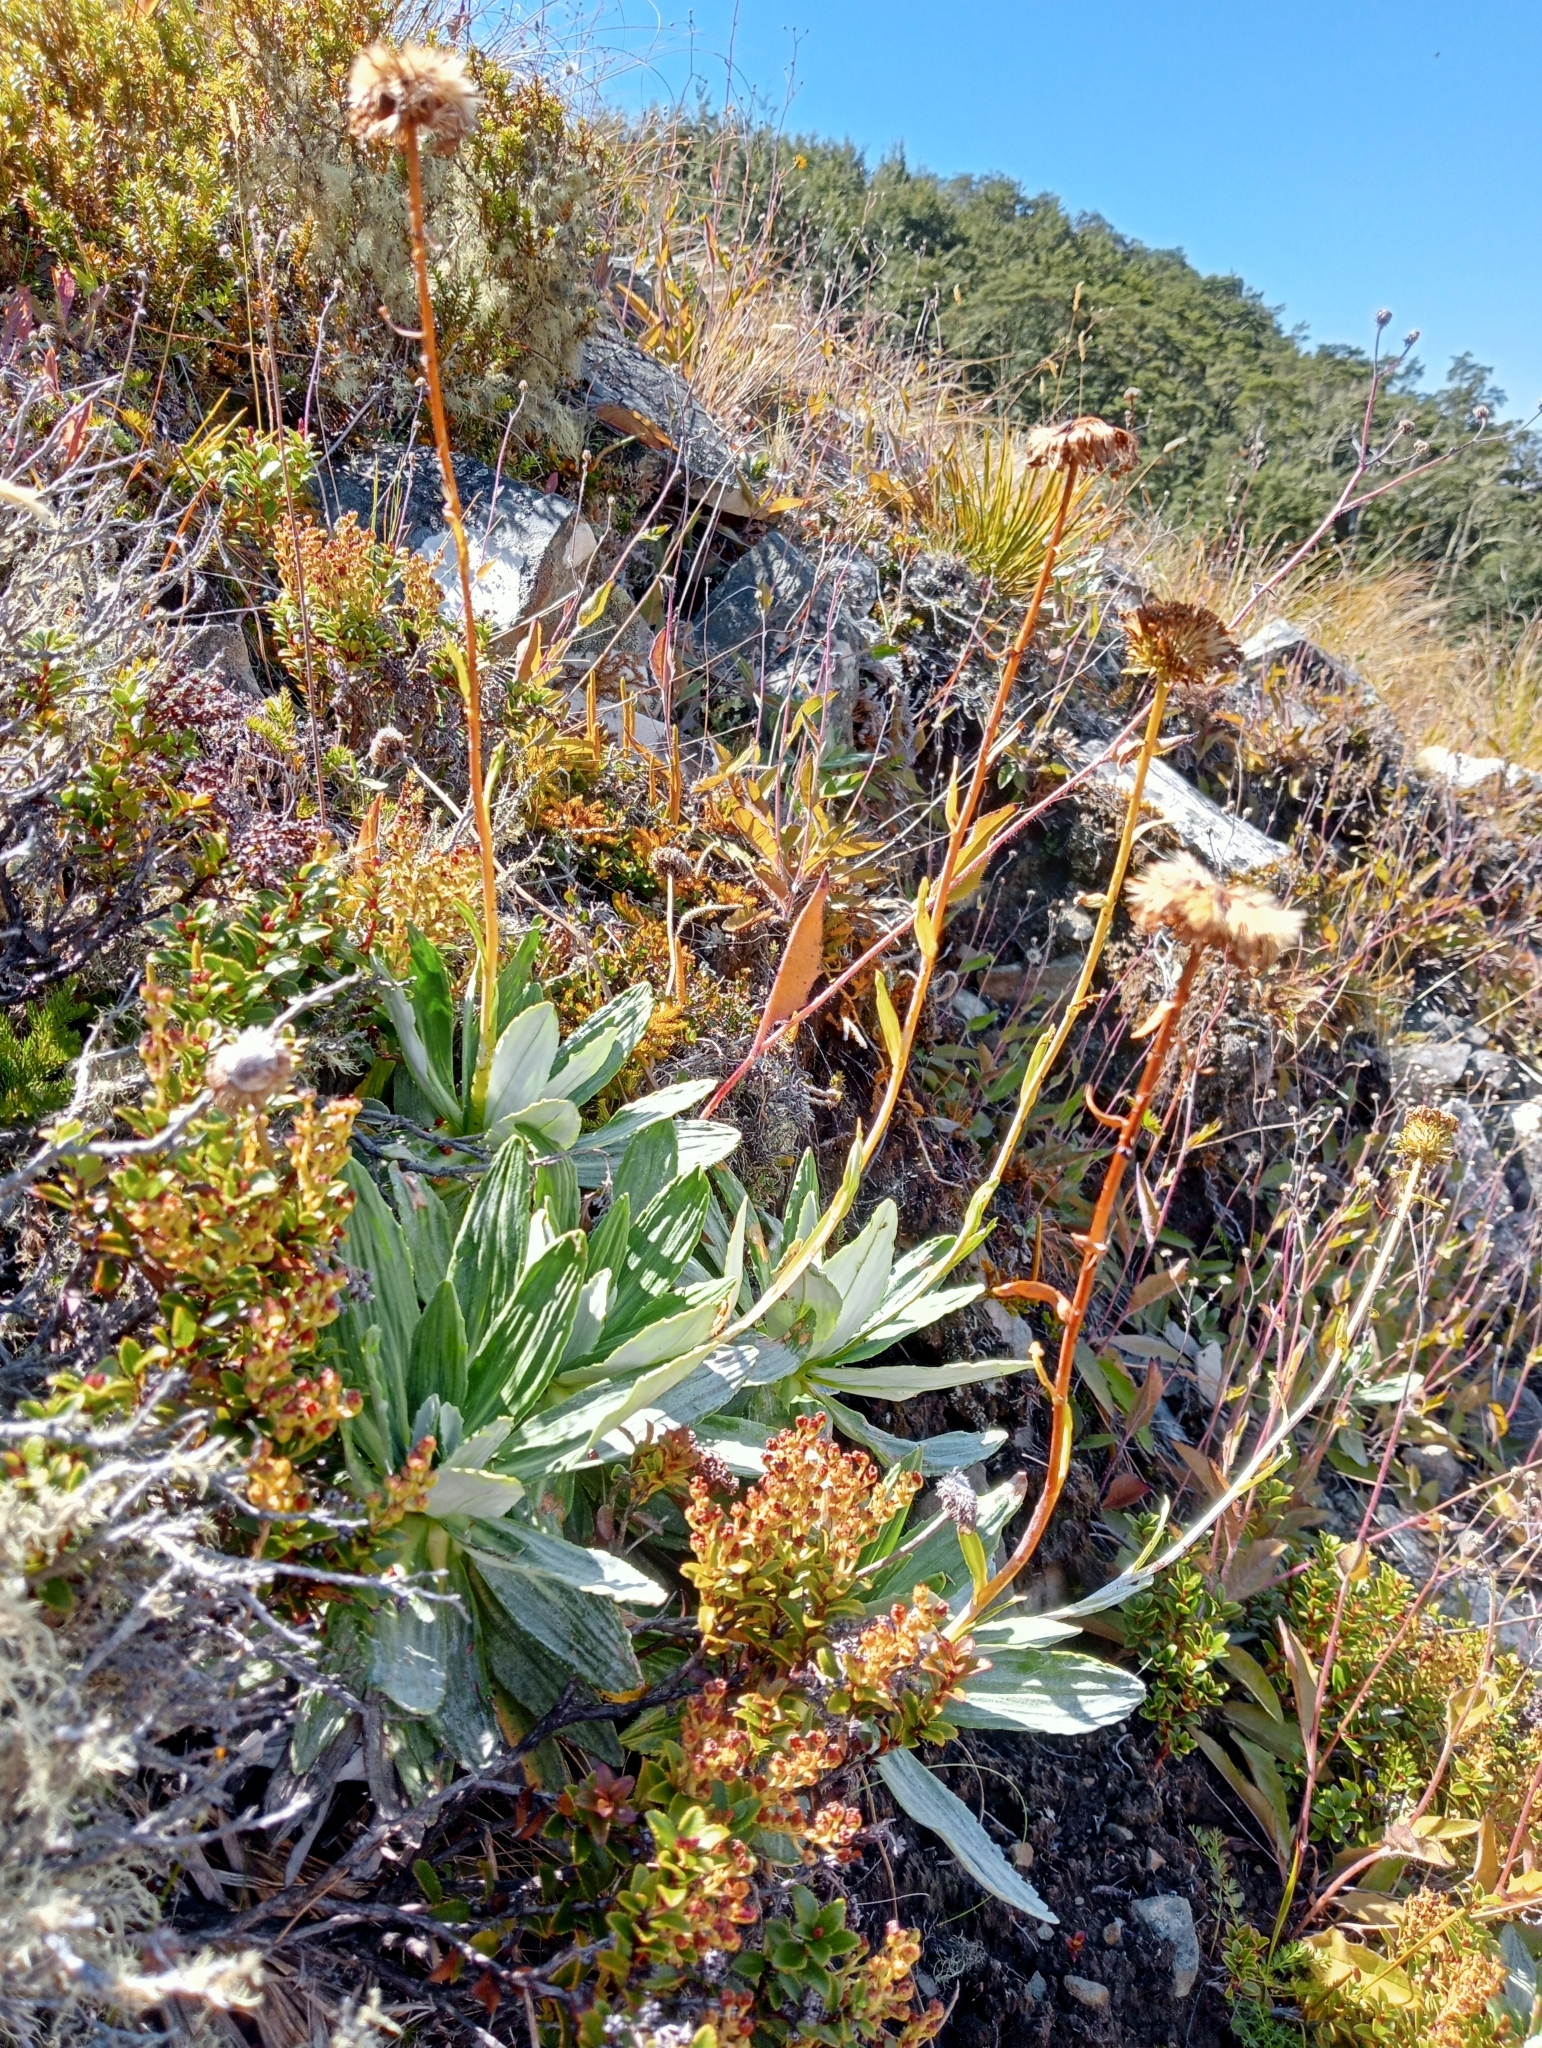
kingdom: Plantae
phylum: Tracheophyta
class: Magnoliopsida
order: Asterales
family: Asteraceae
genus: Celmisia
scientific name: Celmisia densiflora
